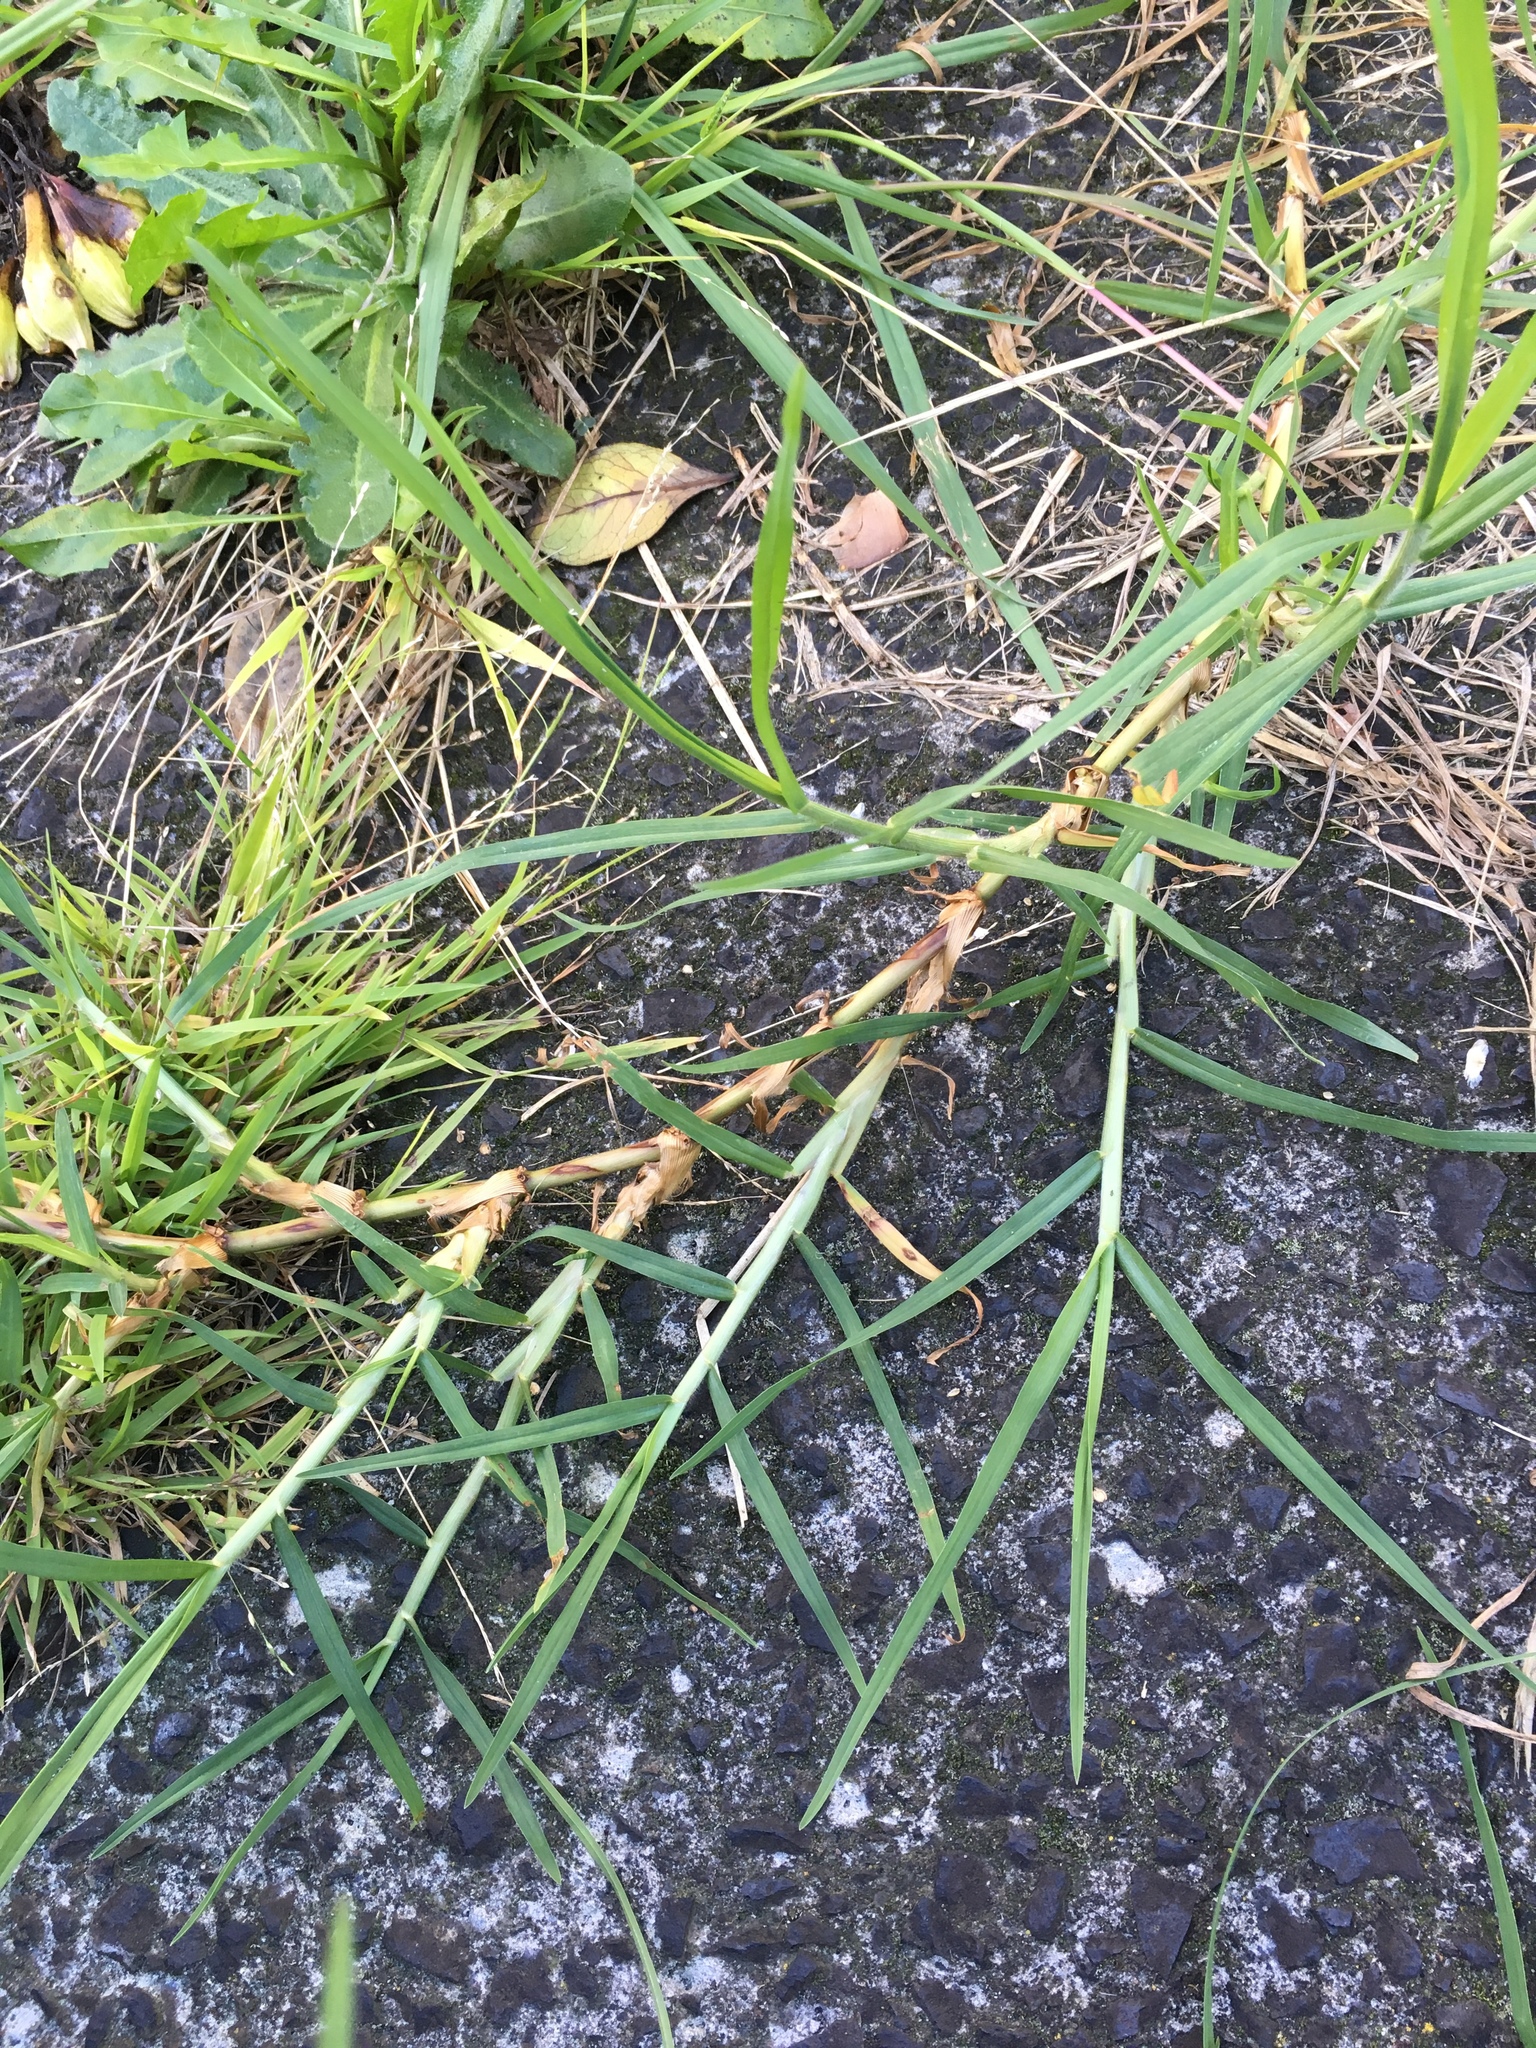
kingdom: Plantae
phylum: Tracheophyta
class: Liliopsida
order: Poales
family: Poaceae
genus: Cenchrus
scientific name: Cenchrus clandestinus
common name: Kikuyugrass
